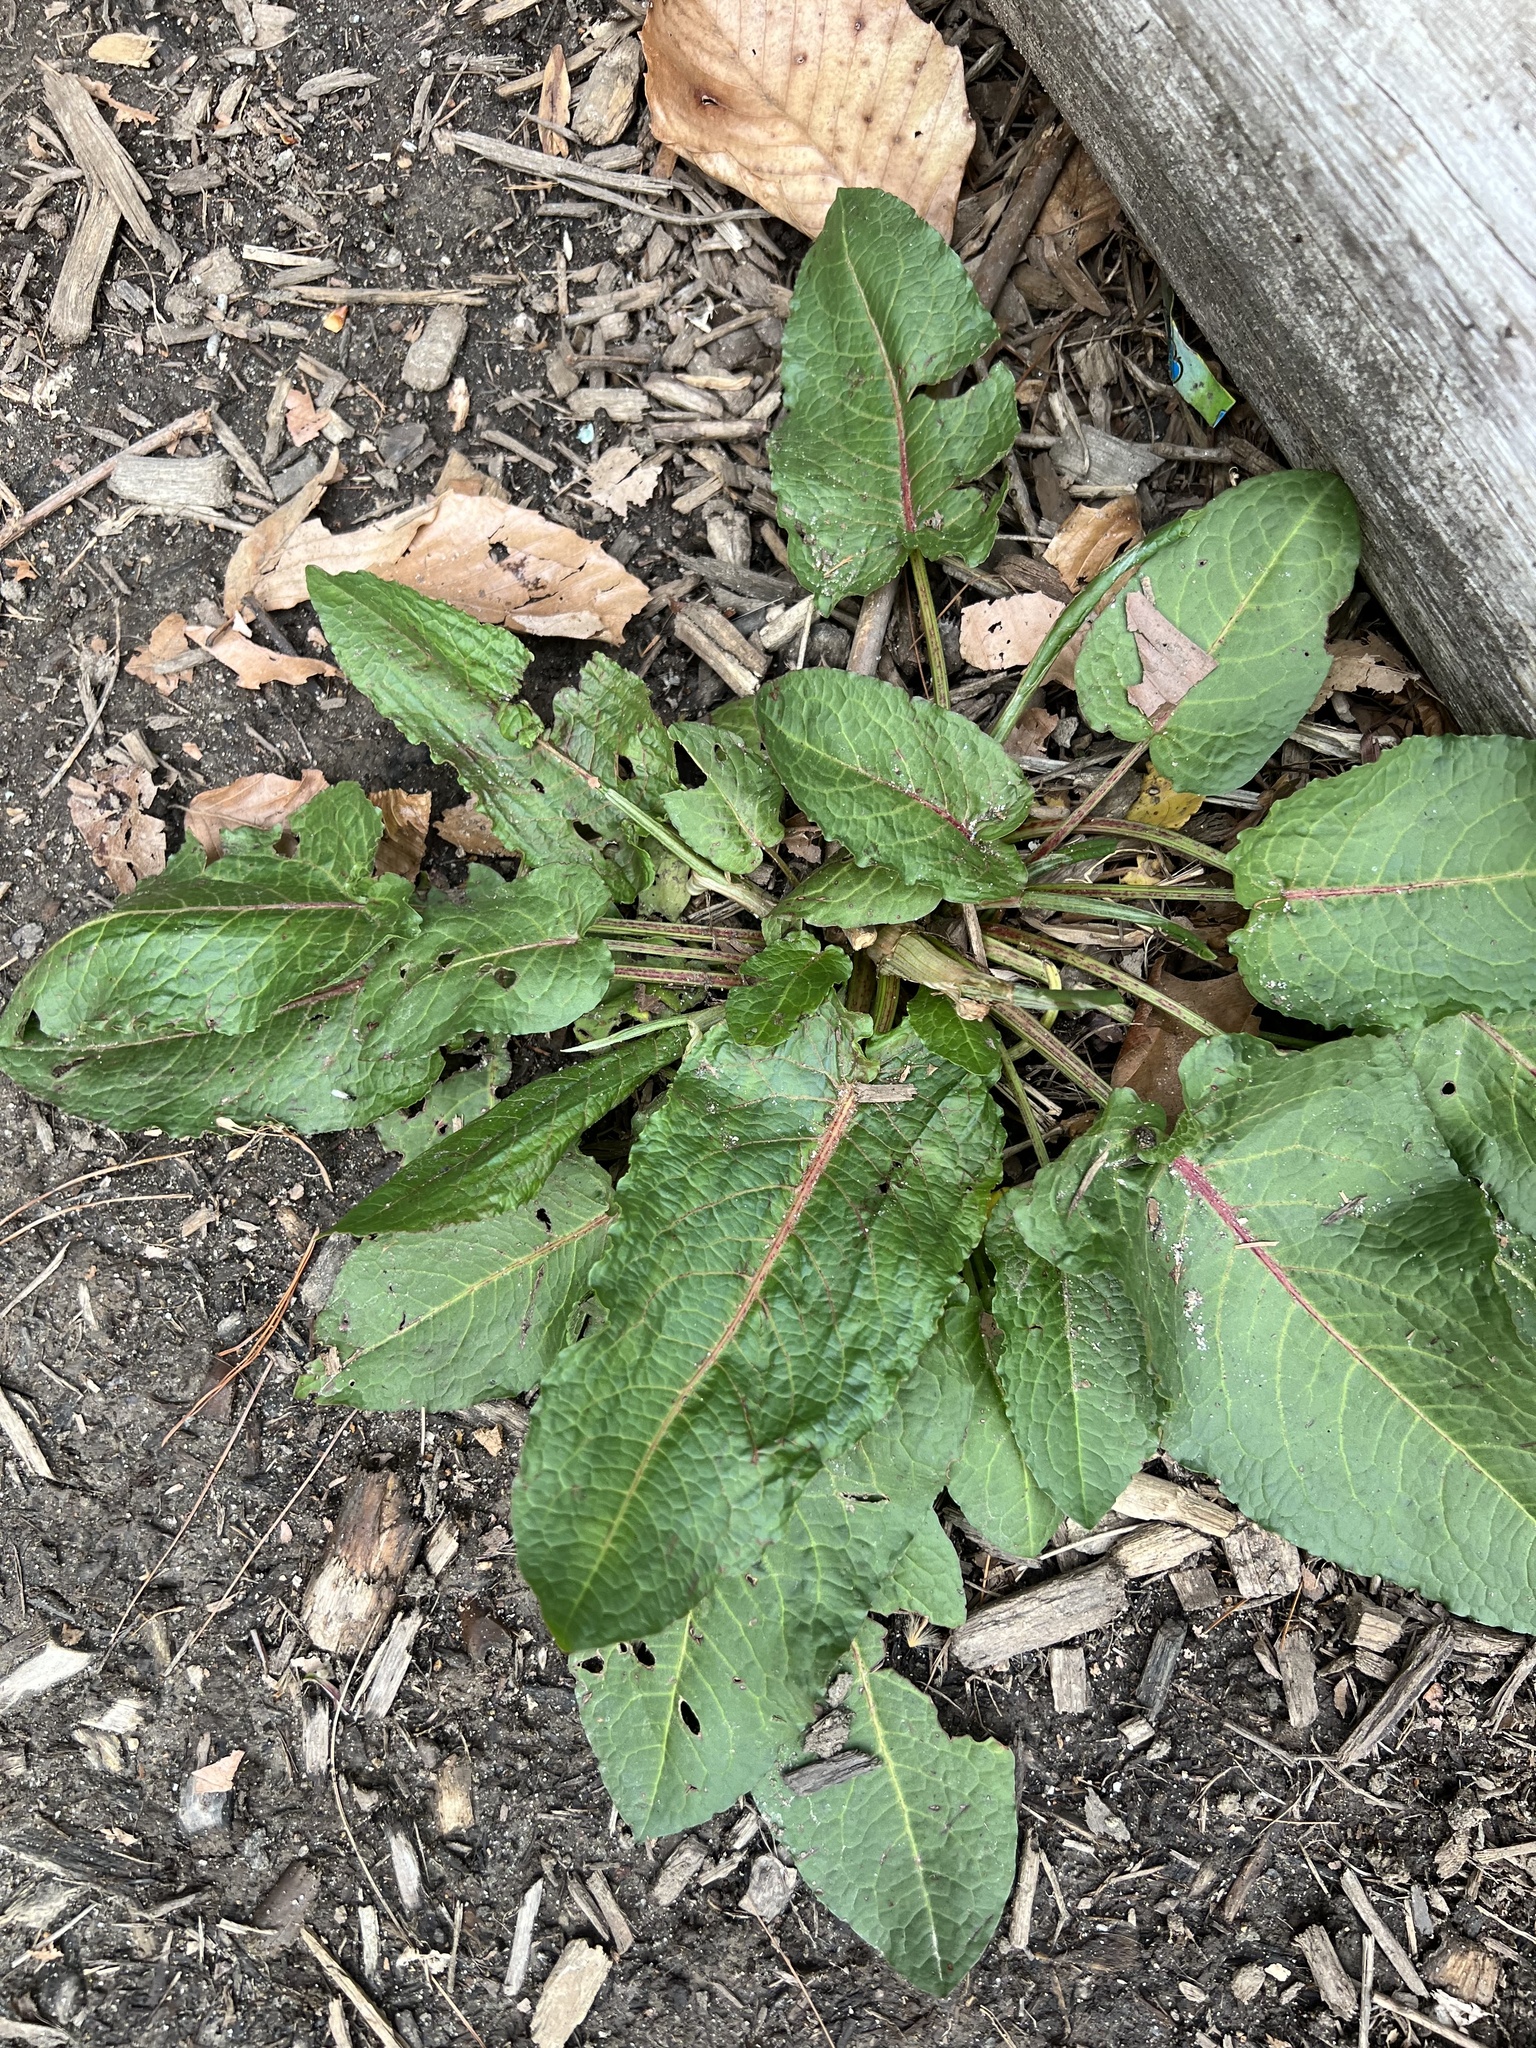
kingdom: Plantae
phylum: Tracheophyta
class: Magnoliopsida
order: Caryophyllales
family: Polygonaceae
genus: Rumex
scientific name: Rumex obtusifolius
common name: Bitter dock
